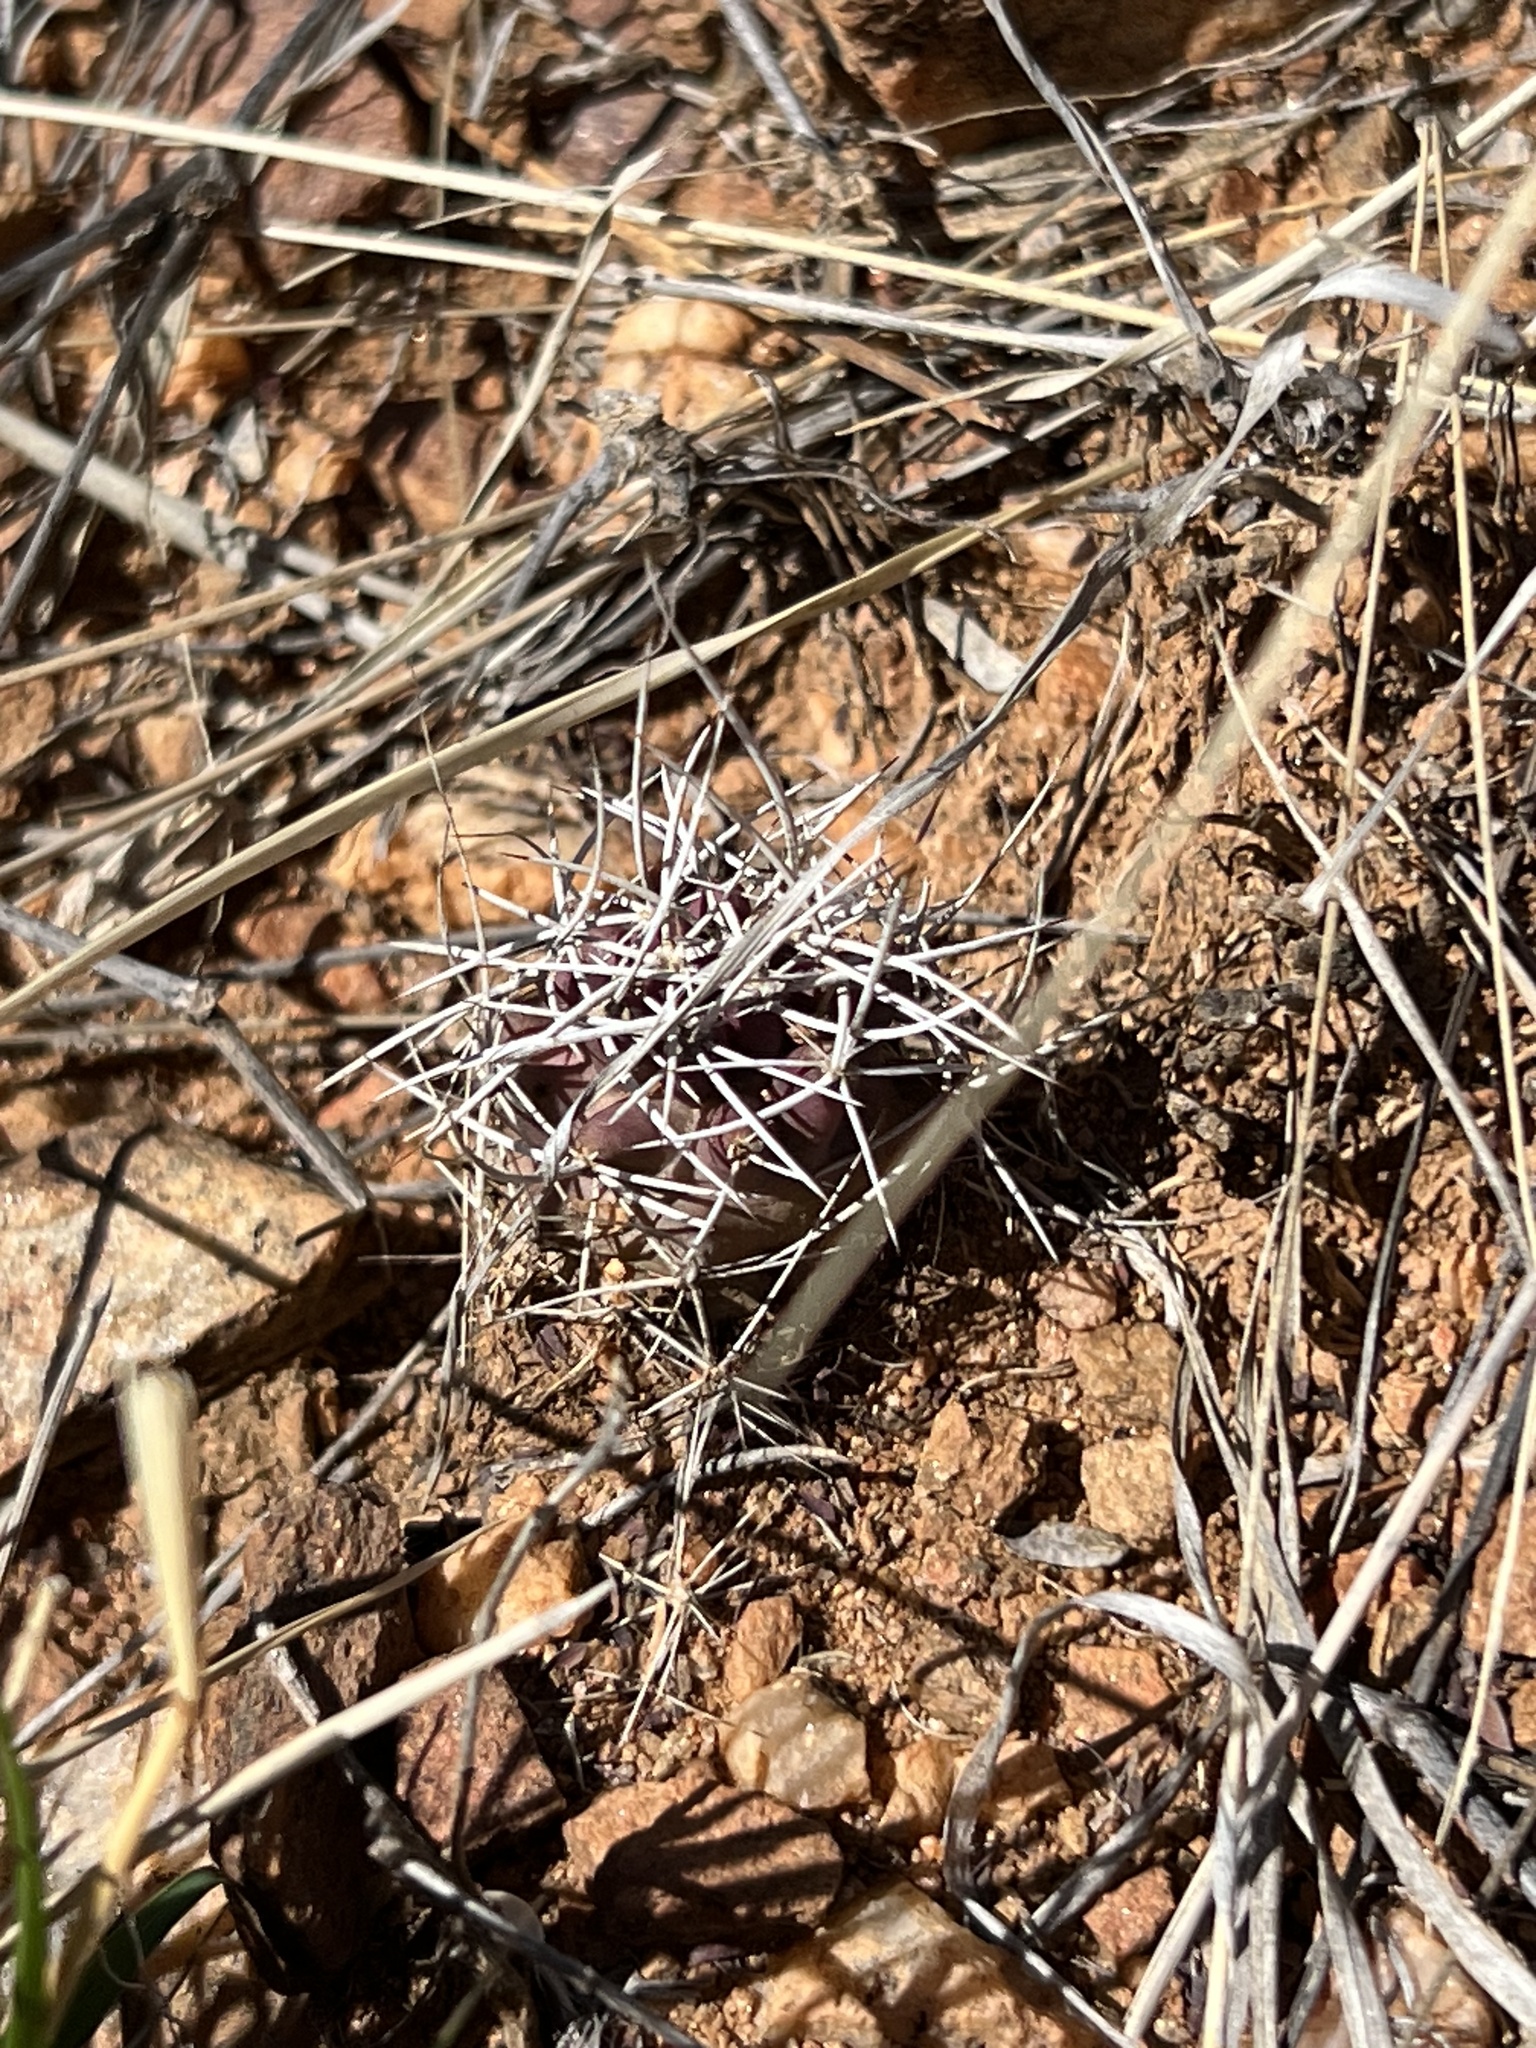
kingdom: Plantae
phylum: Tracheophyta
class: Magnoliopsida
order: Caryophyllales
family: Cactaceae
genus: Echinocereus
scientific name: Echinocereus fendleri
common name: Fendler's hedgehog cactus
